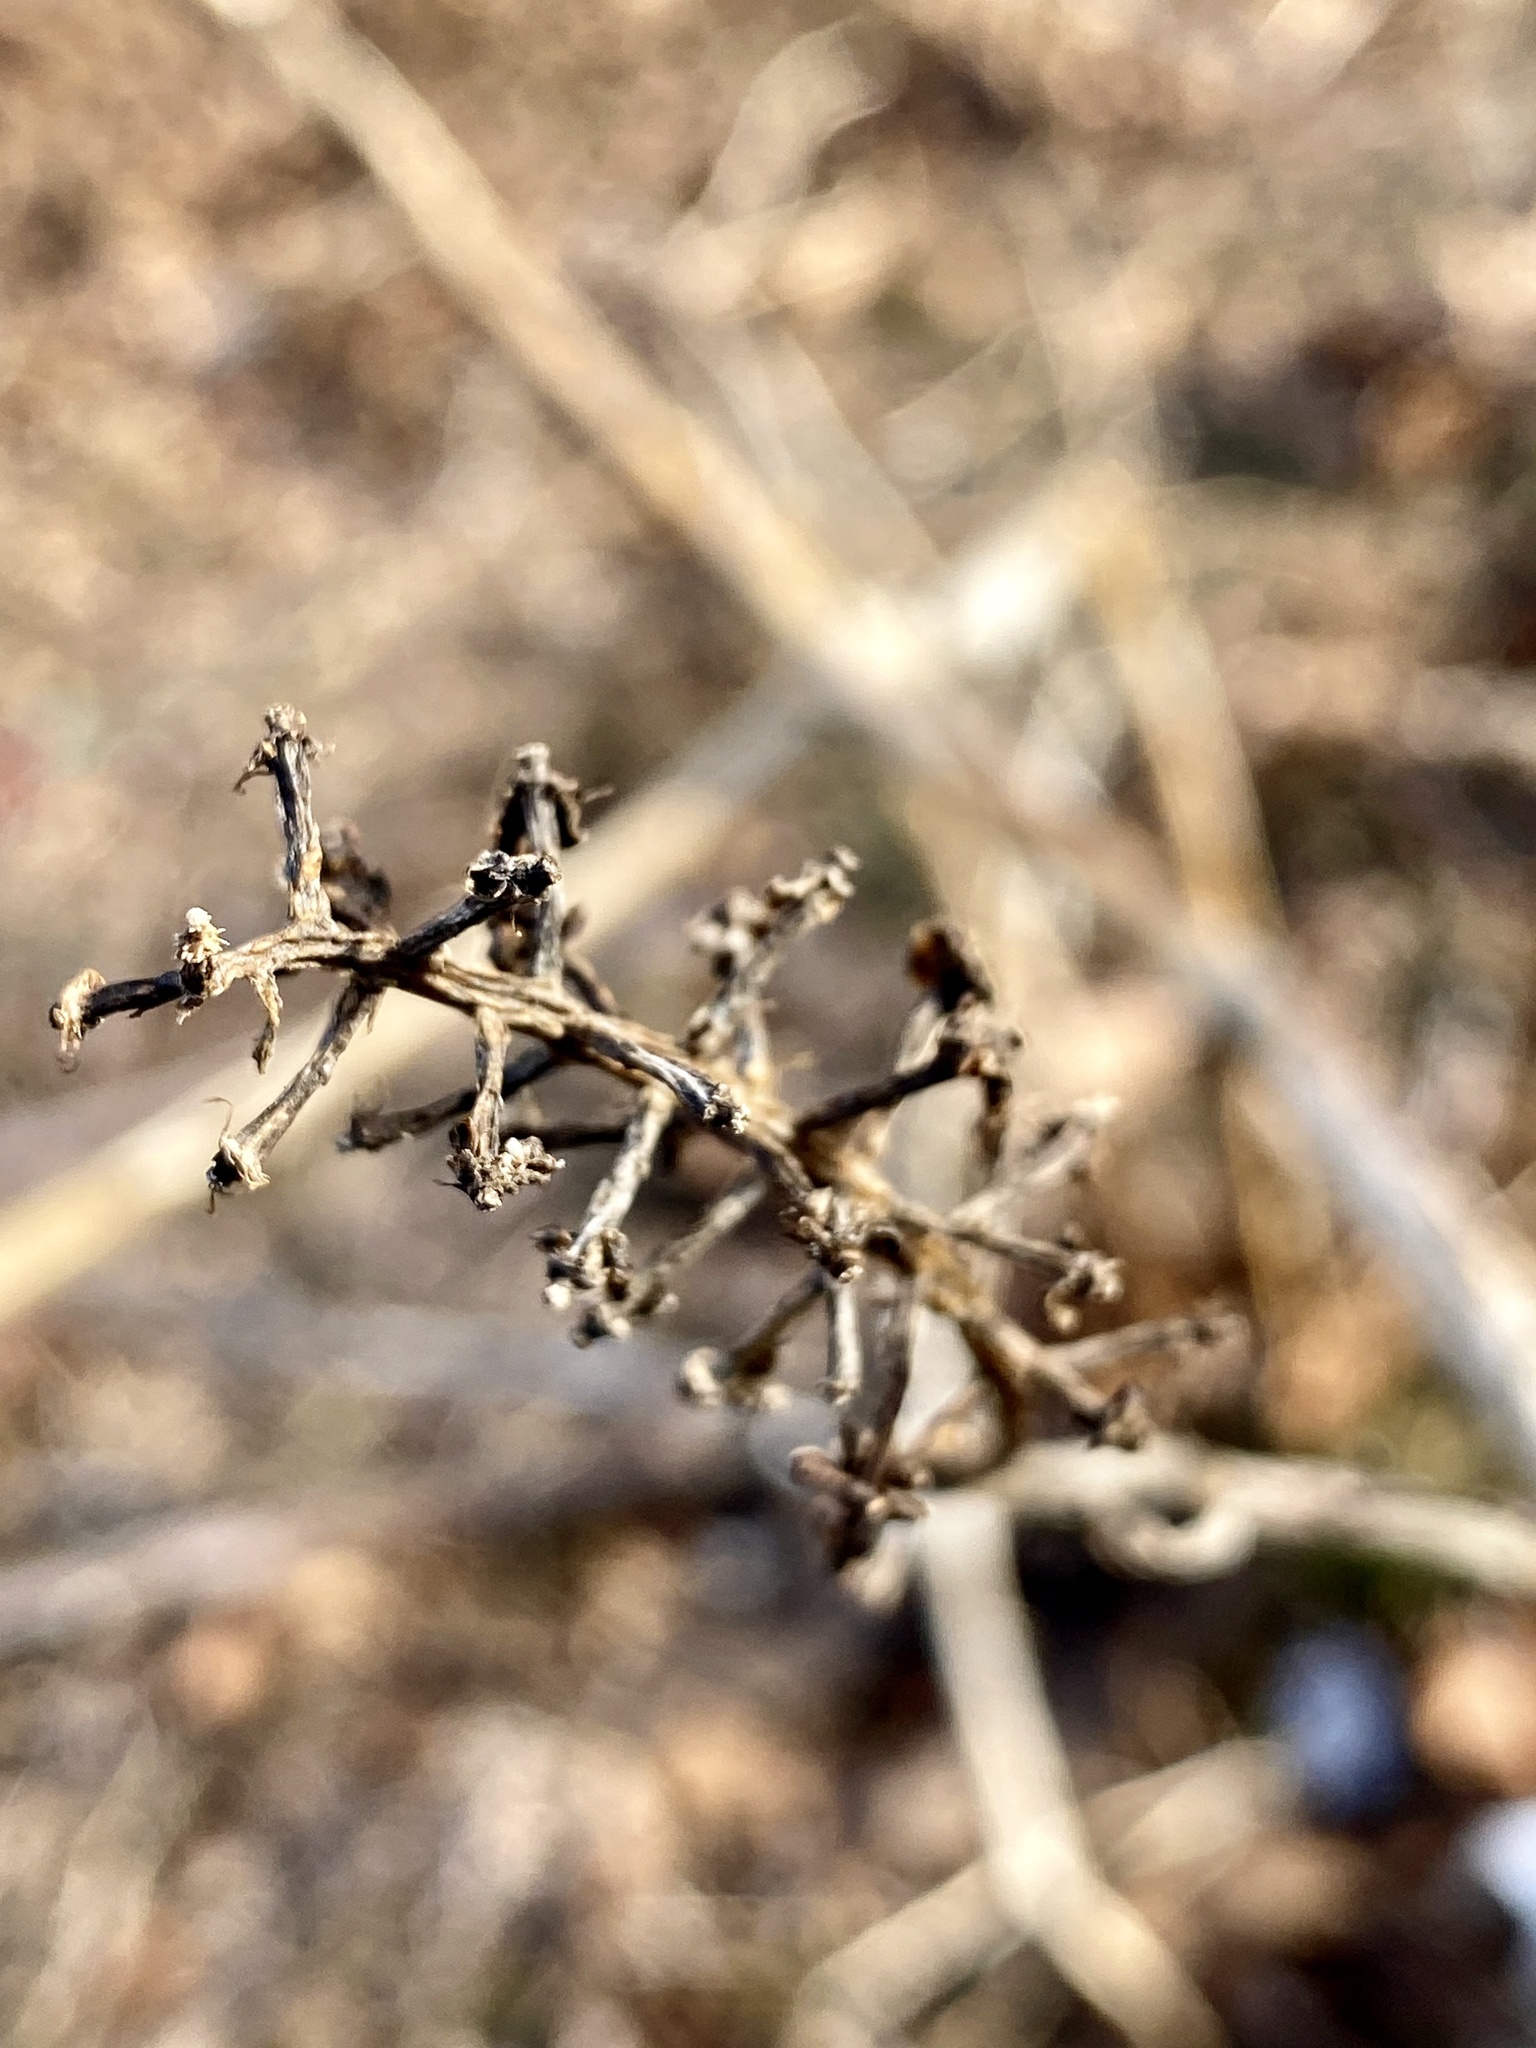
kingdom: Plantae
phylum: Tracheophyta
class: Magnoliopsida
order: Caryophyllales
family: Phytolaccaceae
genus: Phytolacca
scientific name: Phytolacca americana
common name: American pokeweed
